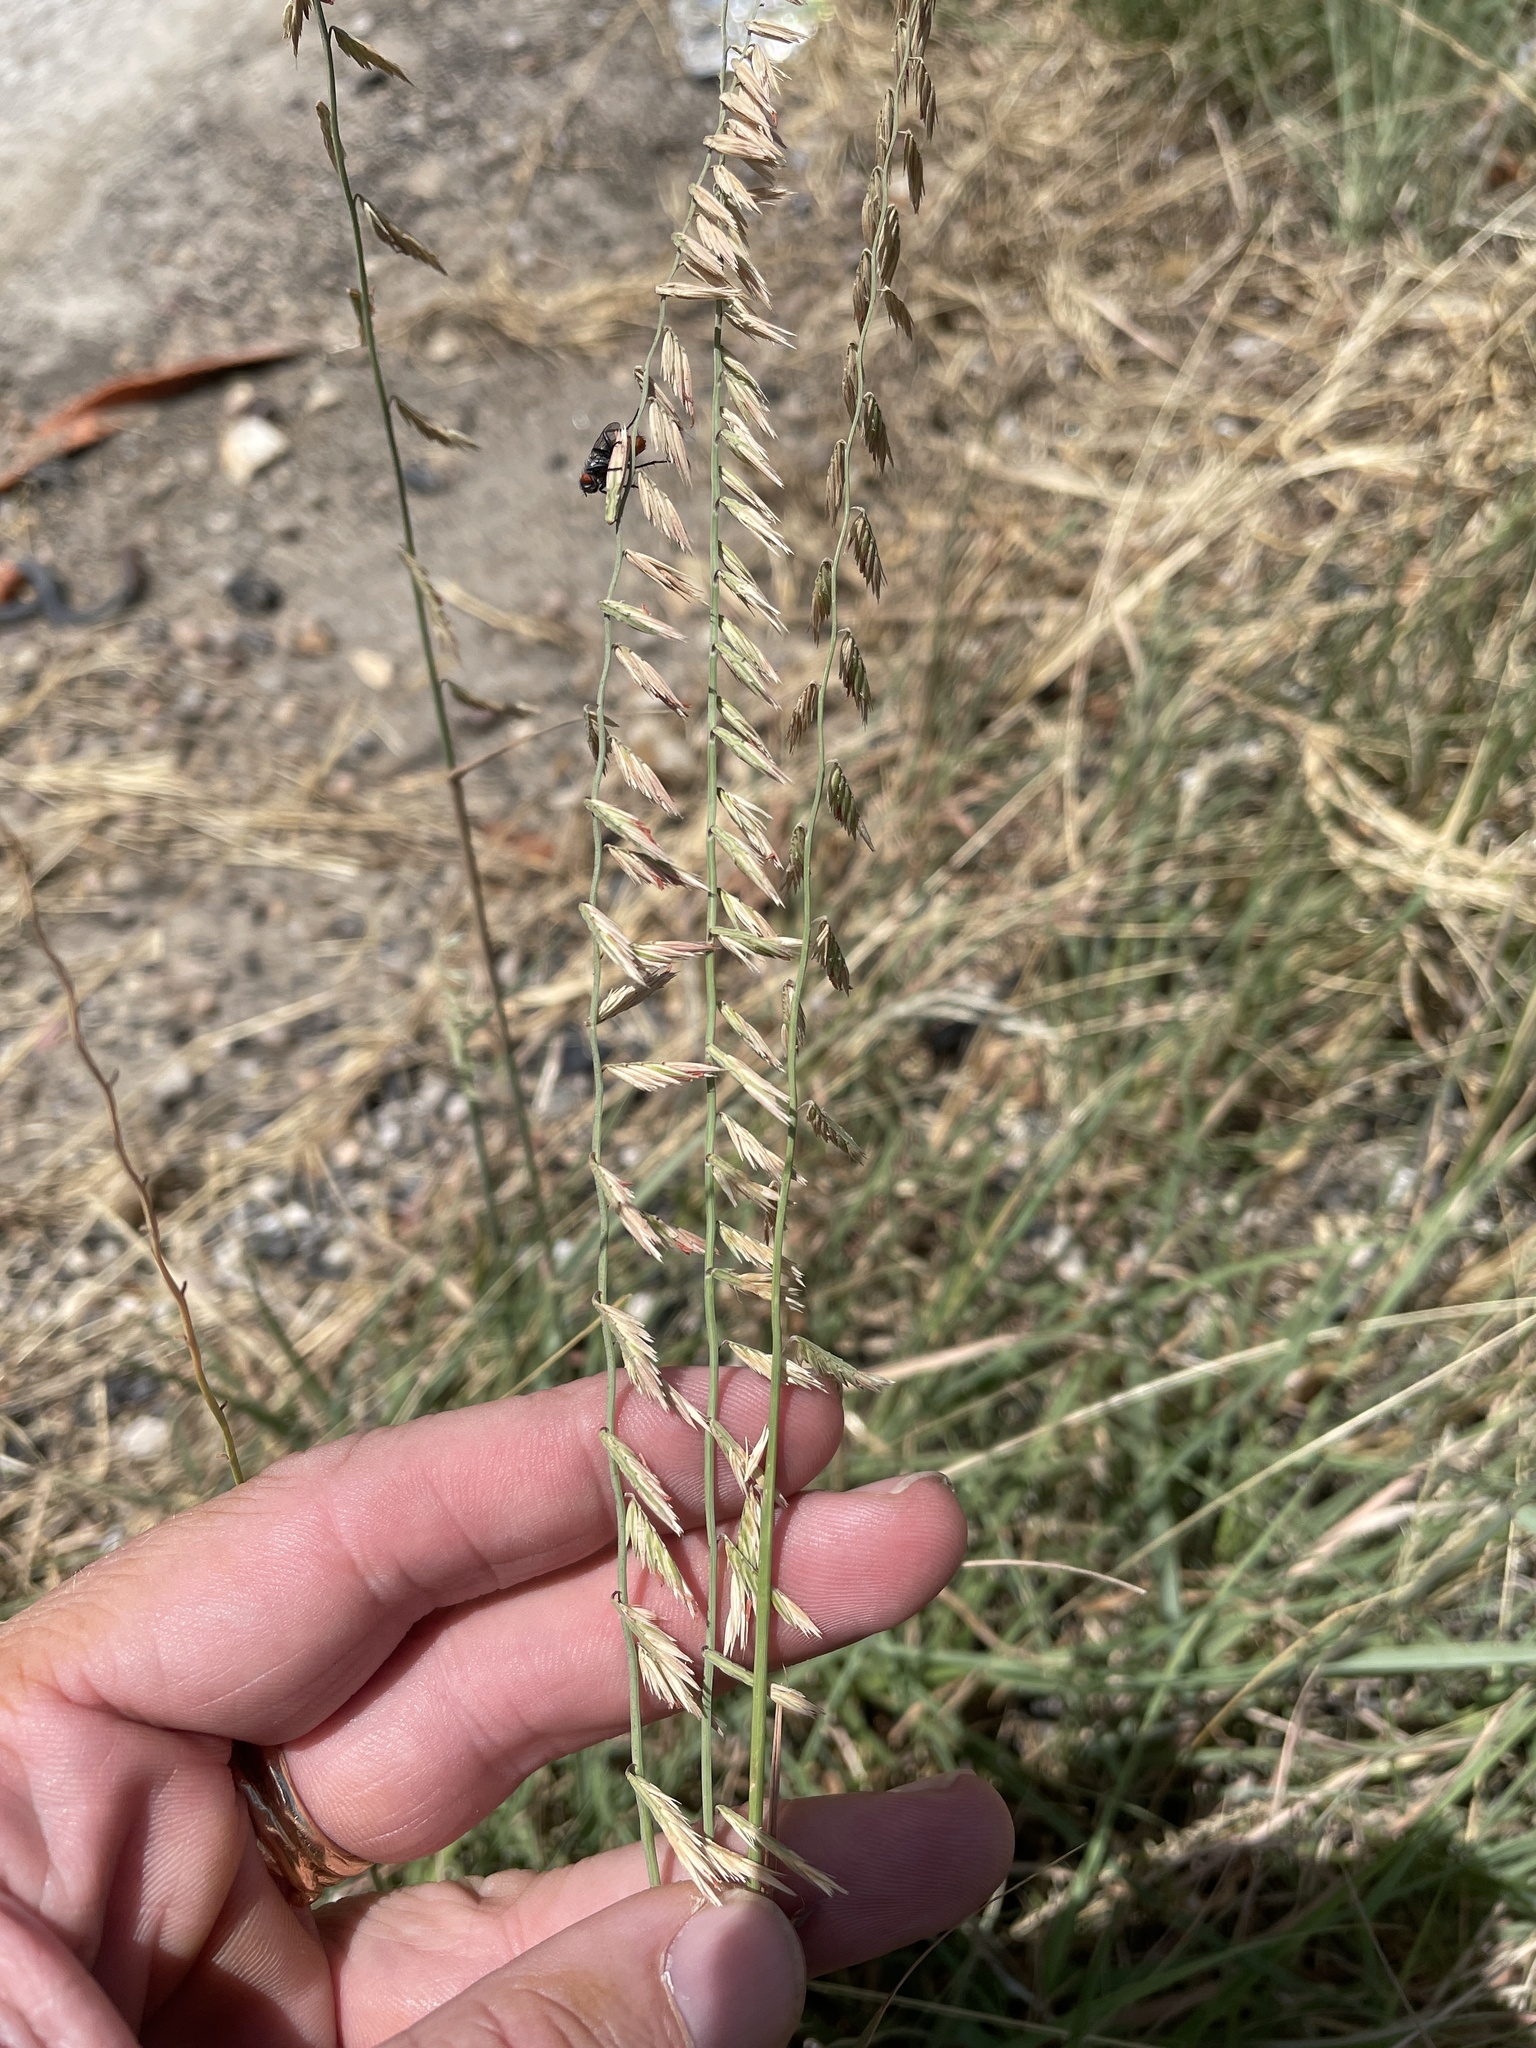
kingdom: Plantae
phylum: Tracheophyta
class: Liliopsida
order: Poales
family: Poaceae
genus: Bouteloua
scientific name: Bouteloua curtipendula
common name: Side-oats grama
